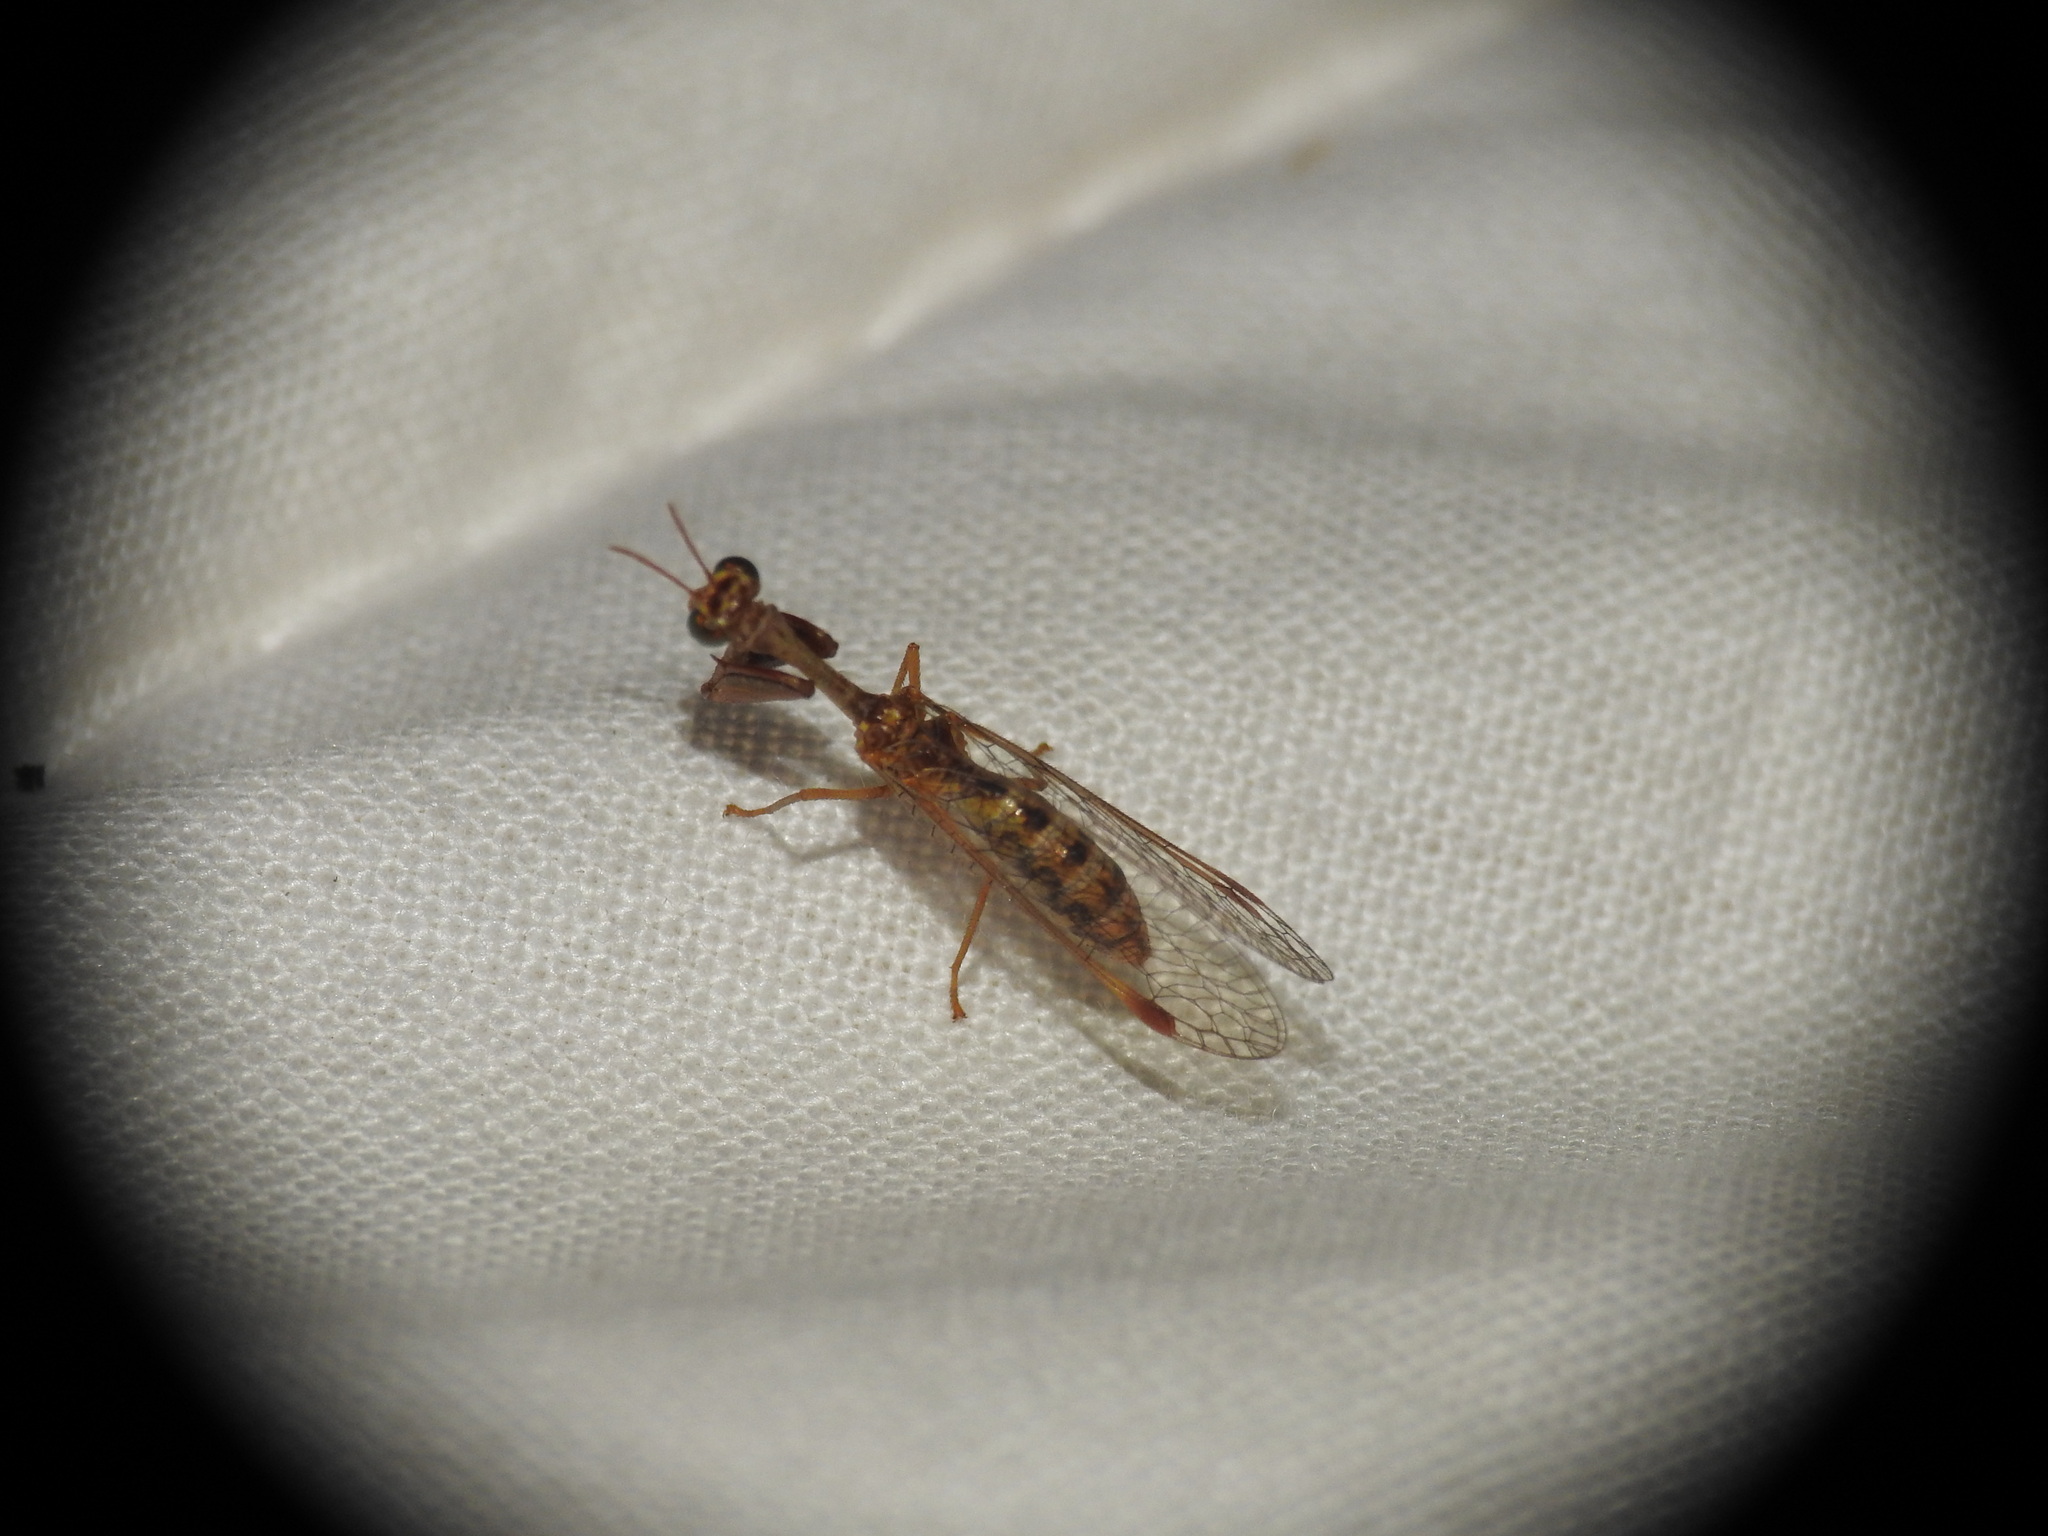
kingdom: Animalia
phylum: Arthropoda
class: Insecta
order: Neuroptera
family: Mantispidae
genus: Mantispa
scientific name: Mantispa styriaca
